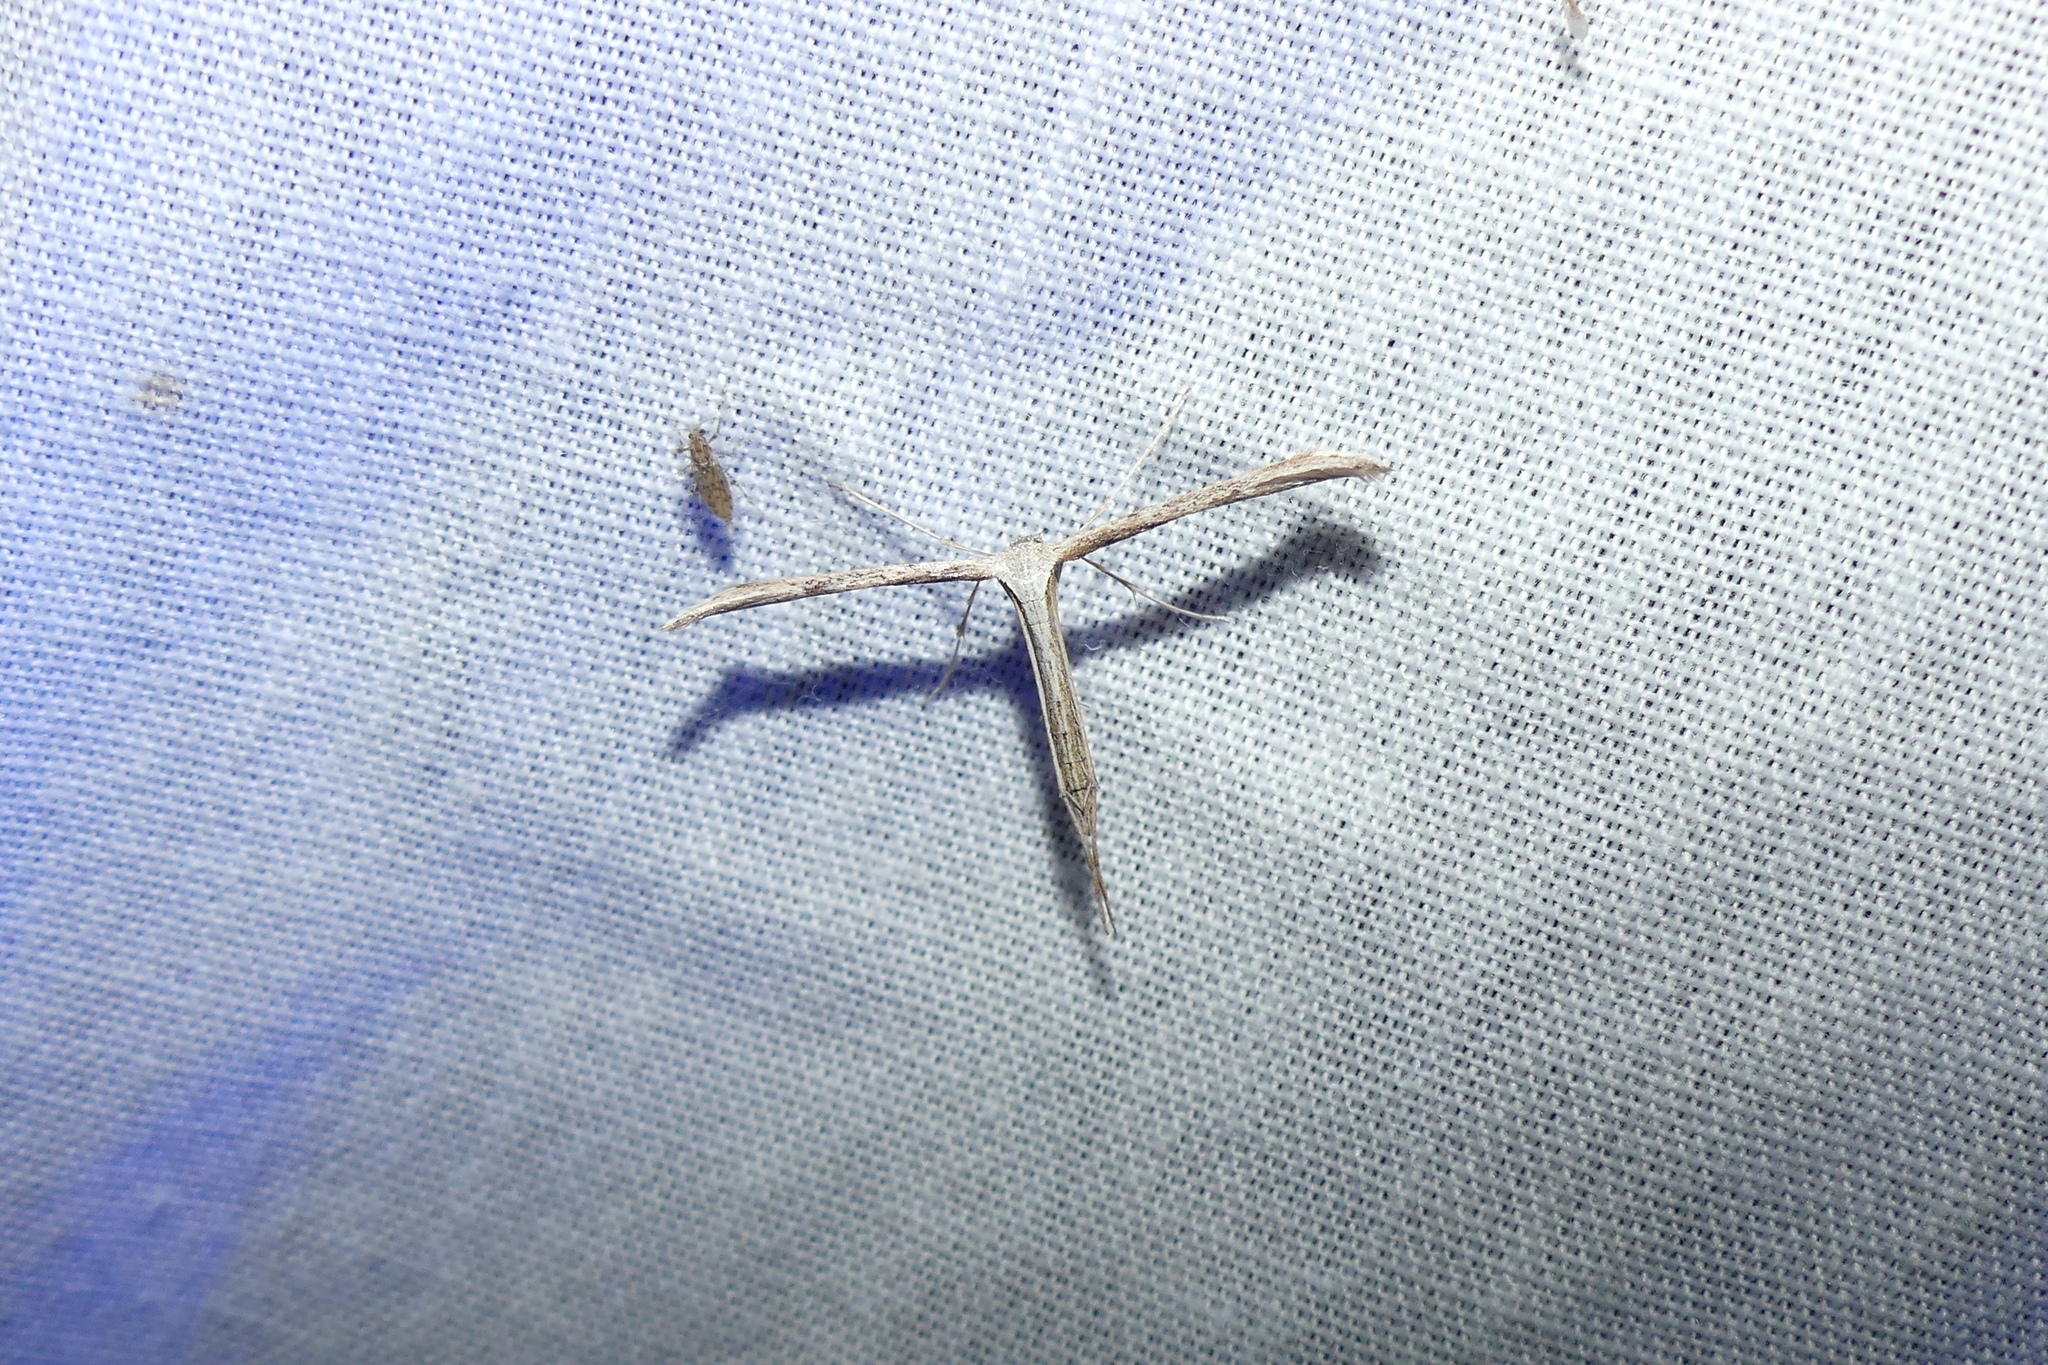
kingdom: Animalia
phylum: Arthropoda
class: Insecta
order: Lepidoptera
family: Pterophoridae
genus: Emmelina
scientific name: Emmelina monodactyla
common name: Common plume
